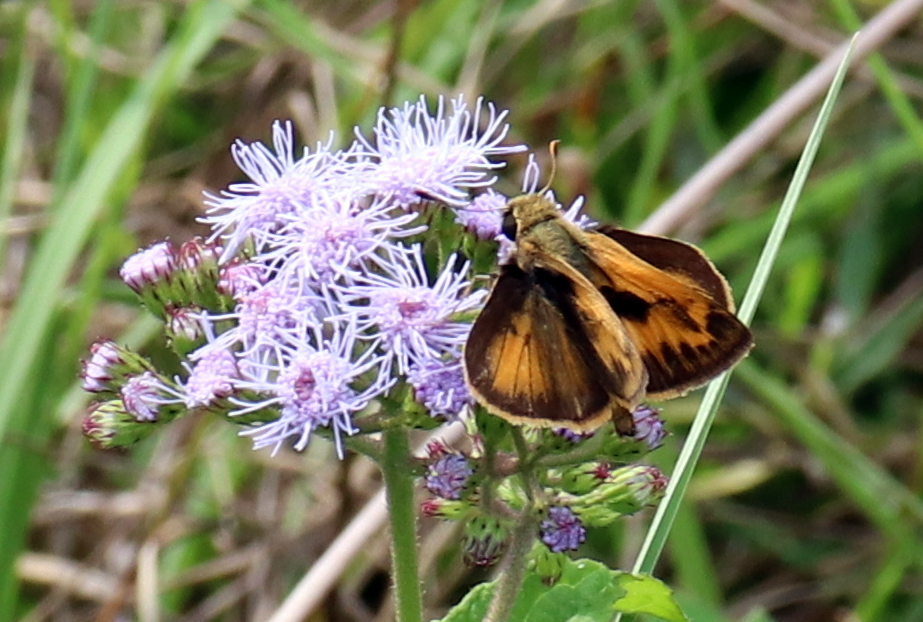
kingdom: Animalia
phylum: Arthropoda
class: Insecta
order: Lepidoptera
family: Hesperiidae
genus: Hylephila
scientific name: Hylephila phyleus
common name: Fiery skipper
